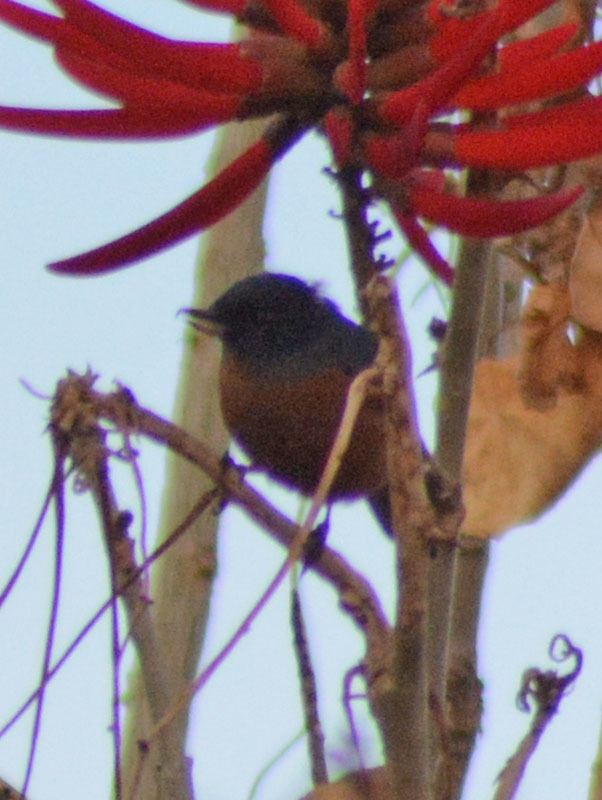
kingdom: Animalia
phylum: Chordata
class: Aves
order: Passeriformes
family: Thraupidae
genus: Diglossa
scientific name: Diglossa baritula
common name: Cinnamon-bellied flowerpiercer
